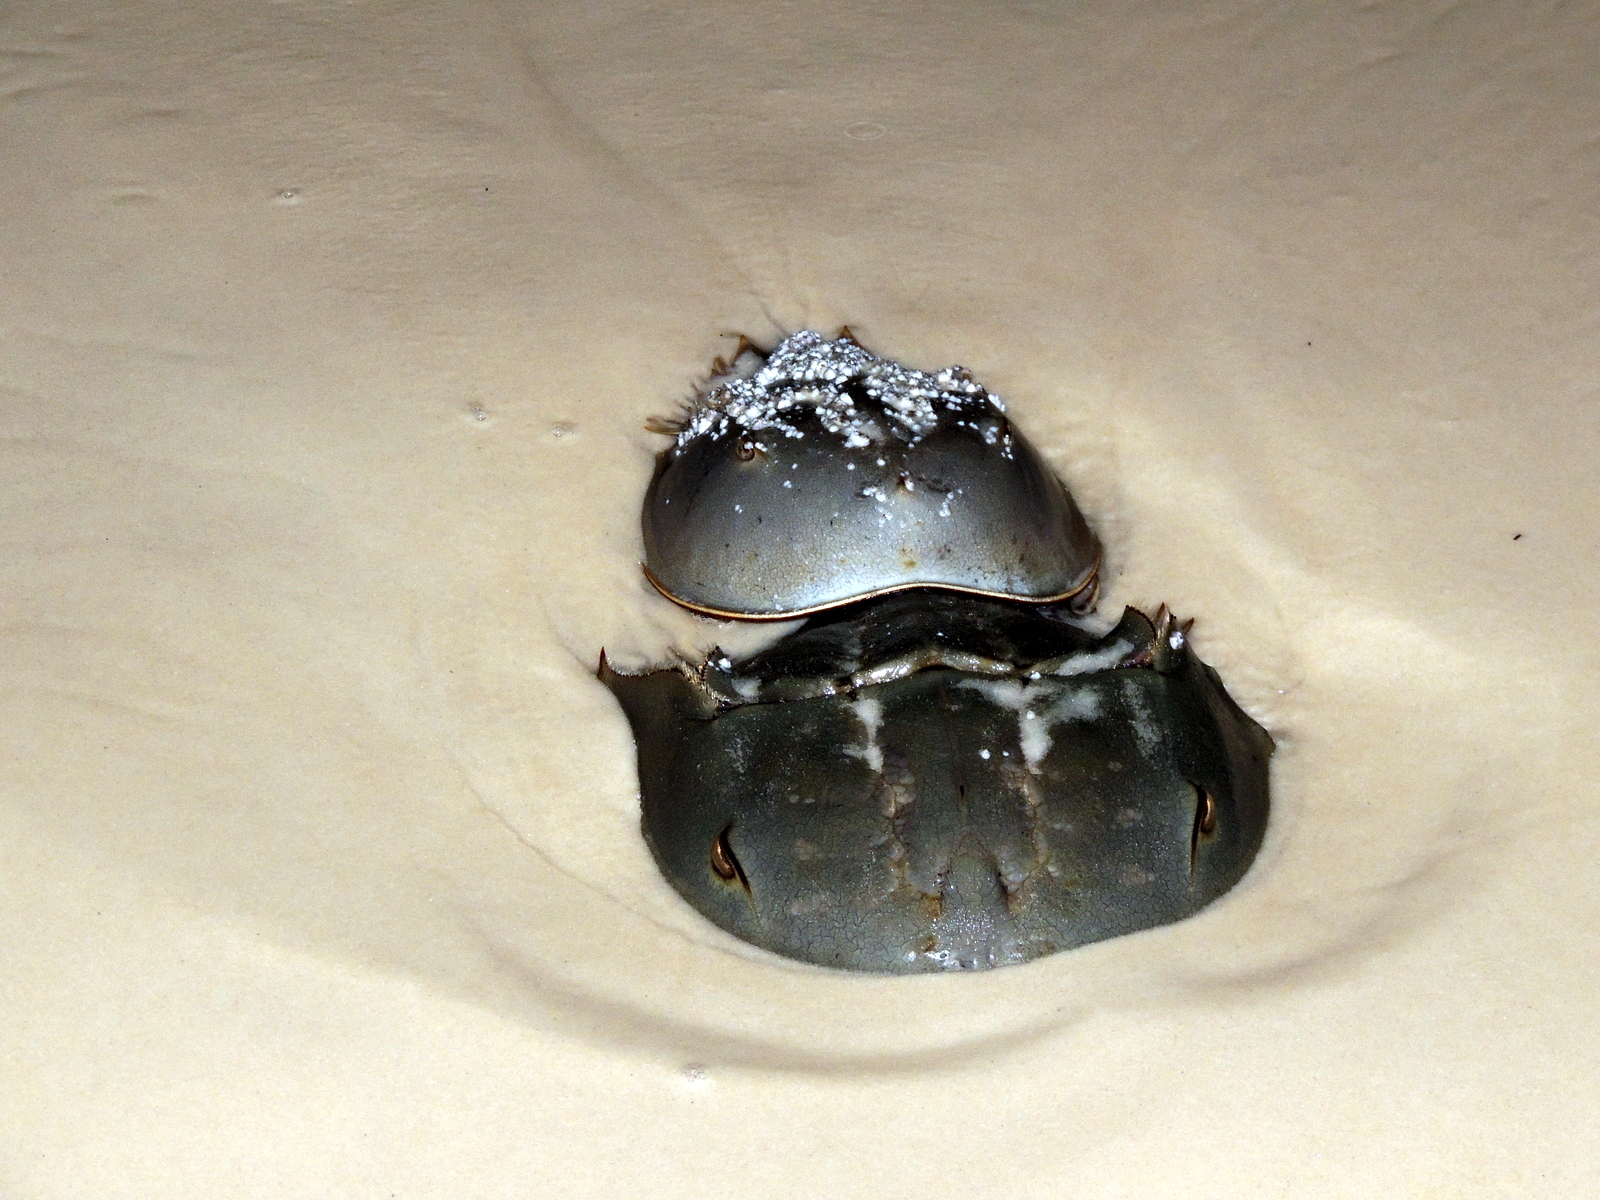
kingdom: Animalia
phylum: Arthropoda
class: Merostomata
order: Xiphosurida
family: Limulidae
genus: Limulus
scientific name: Limulus polyphemus
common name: Horseshoe crab
